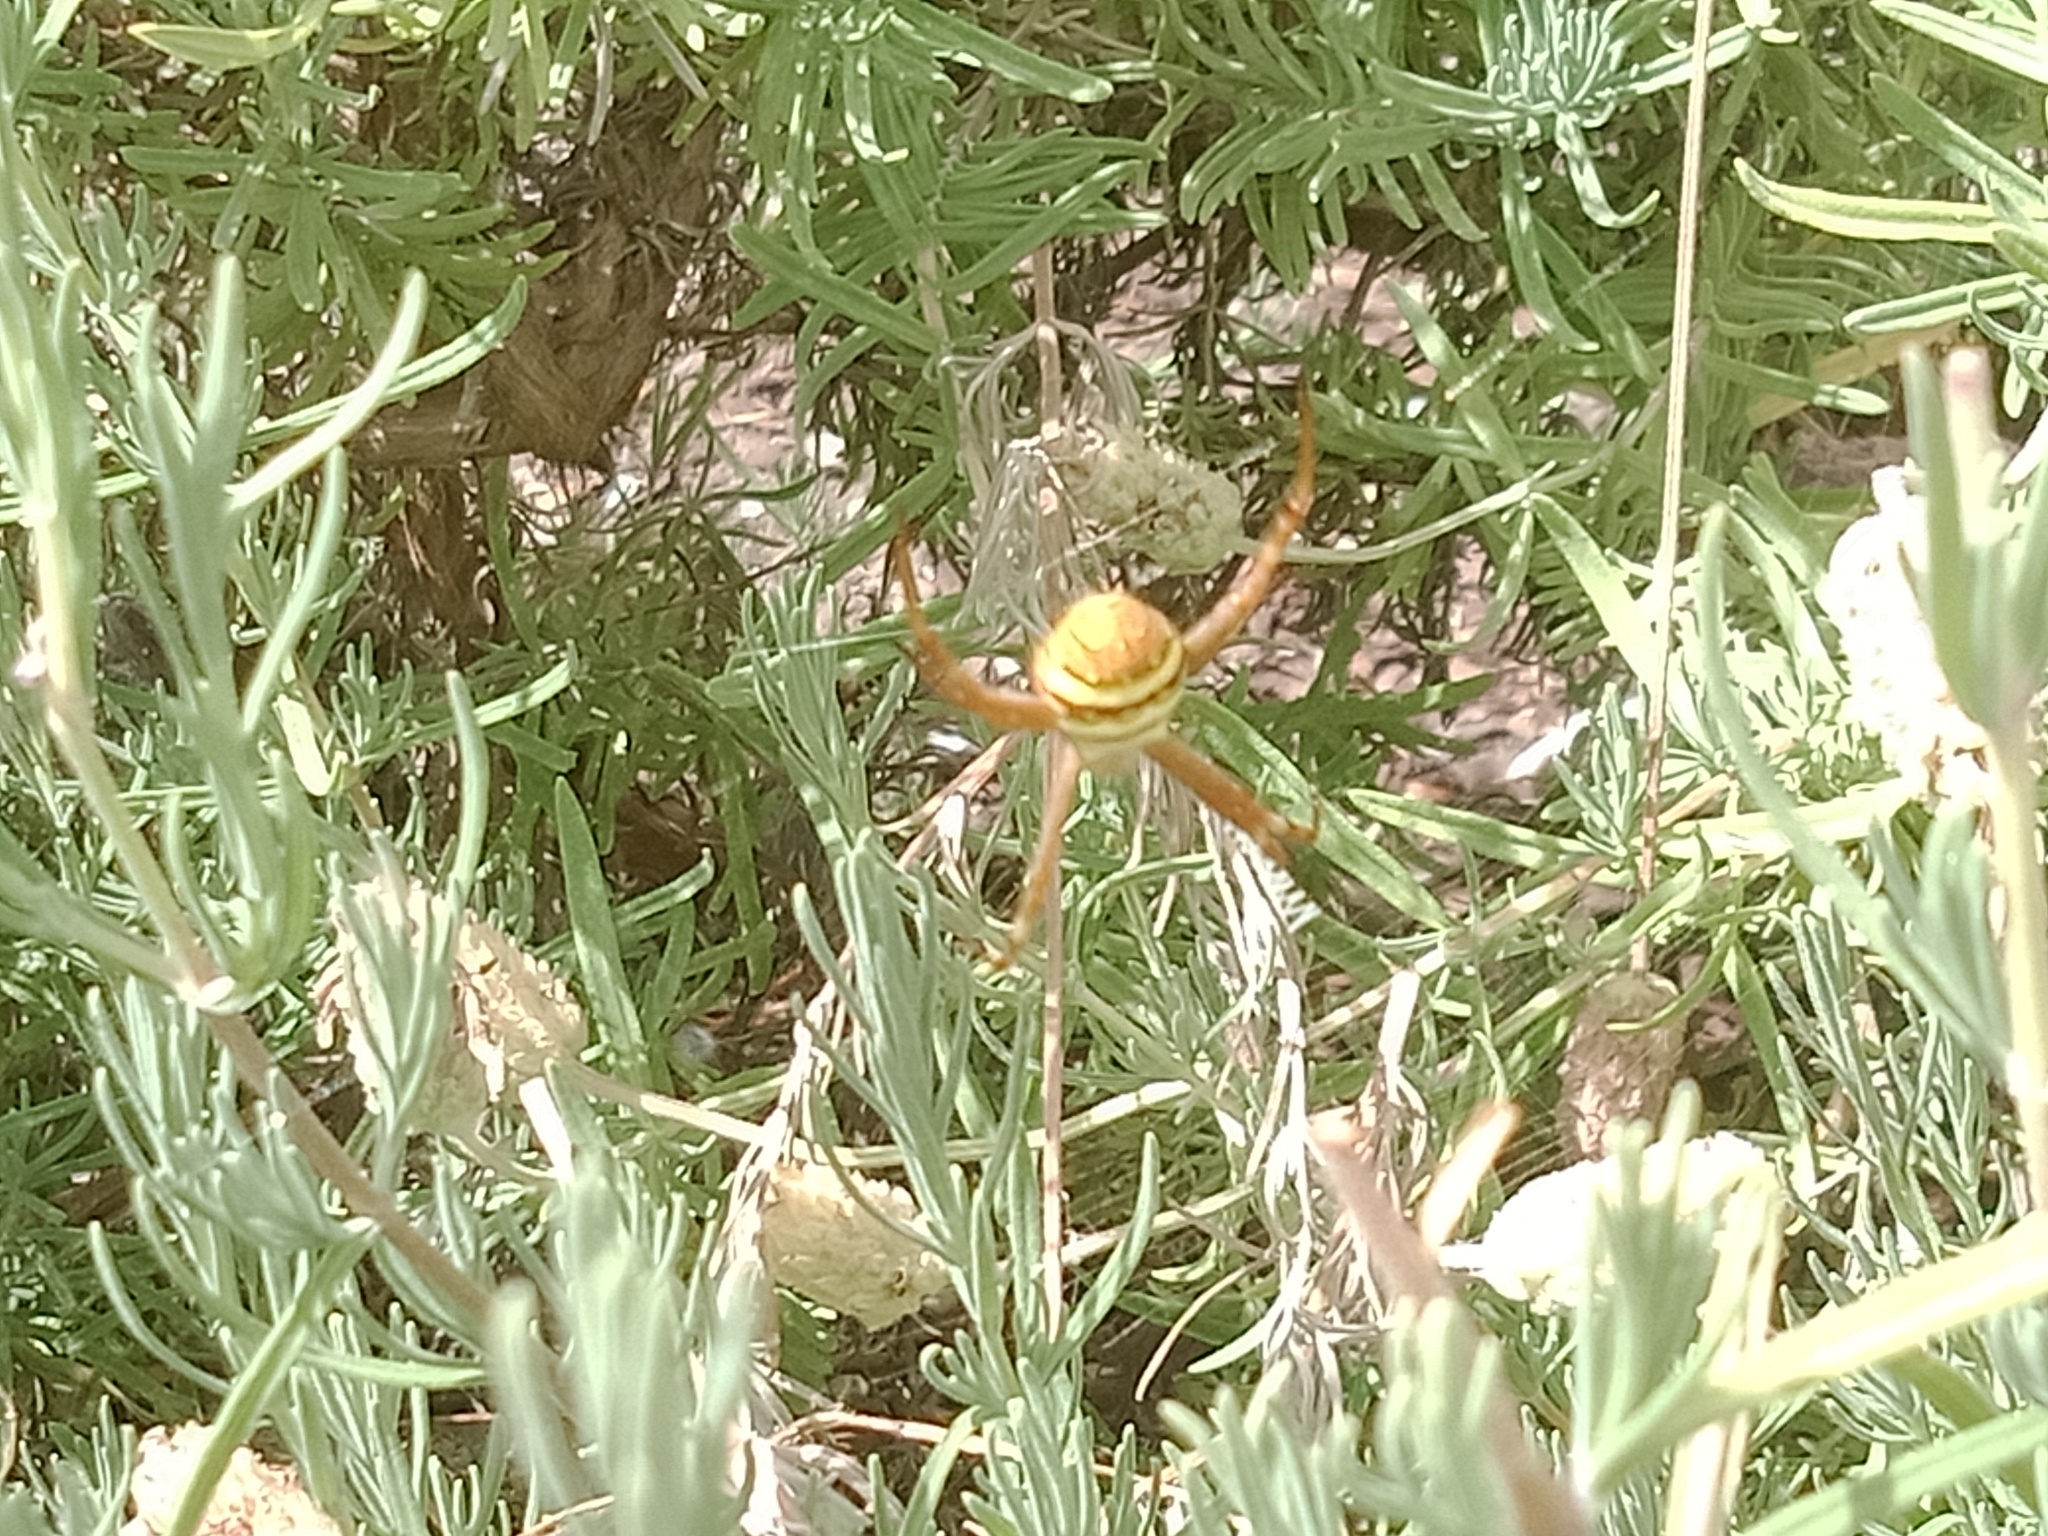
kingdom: Animalia
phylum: Arthropoda
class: Arachnida
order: Araneae
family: Araneidae
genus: Argiope
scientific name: Argiope keyserlingi
